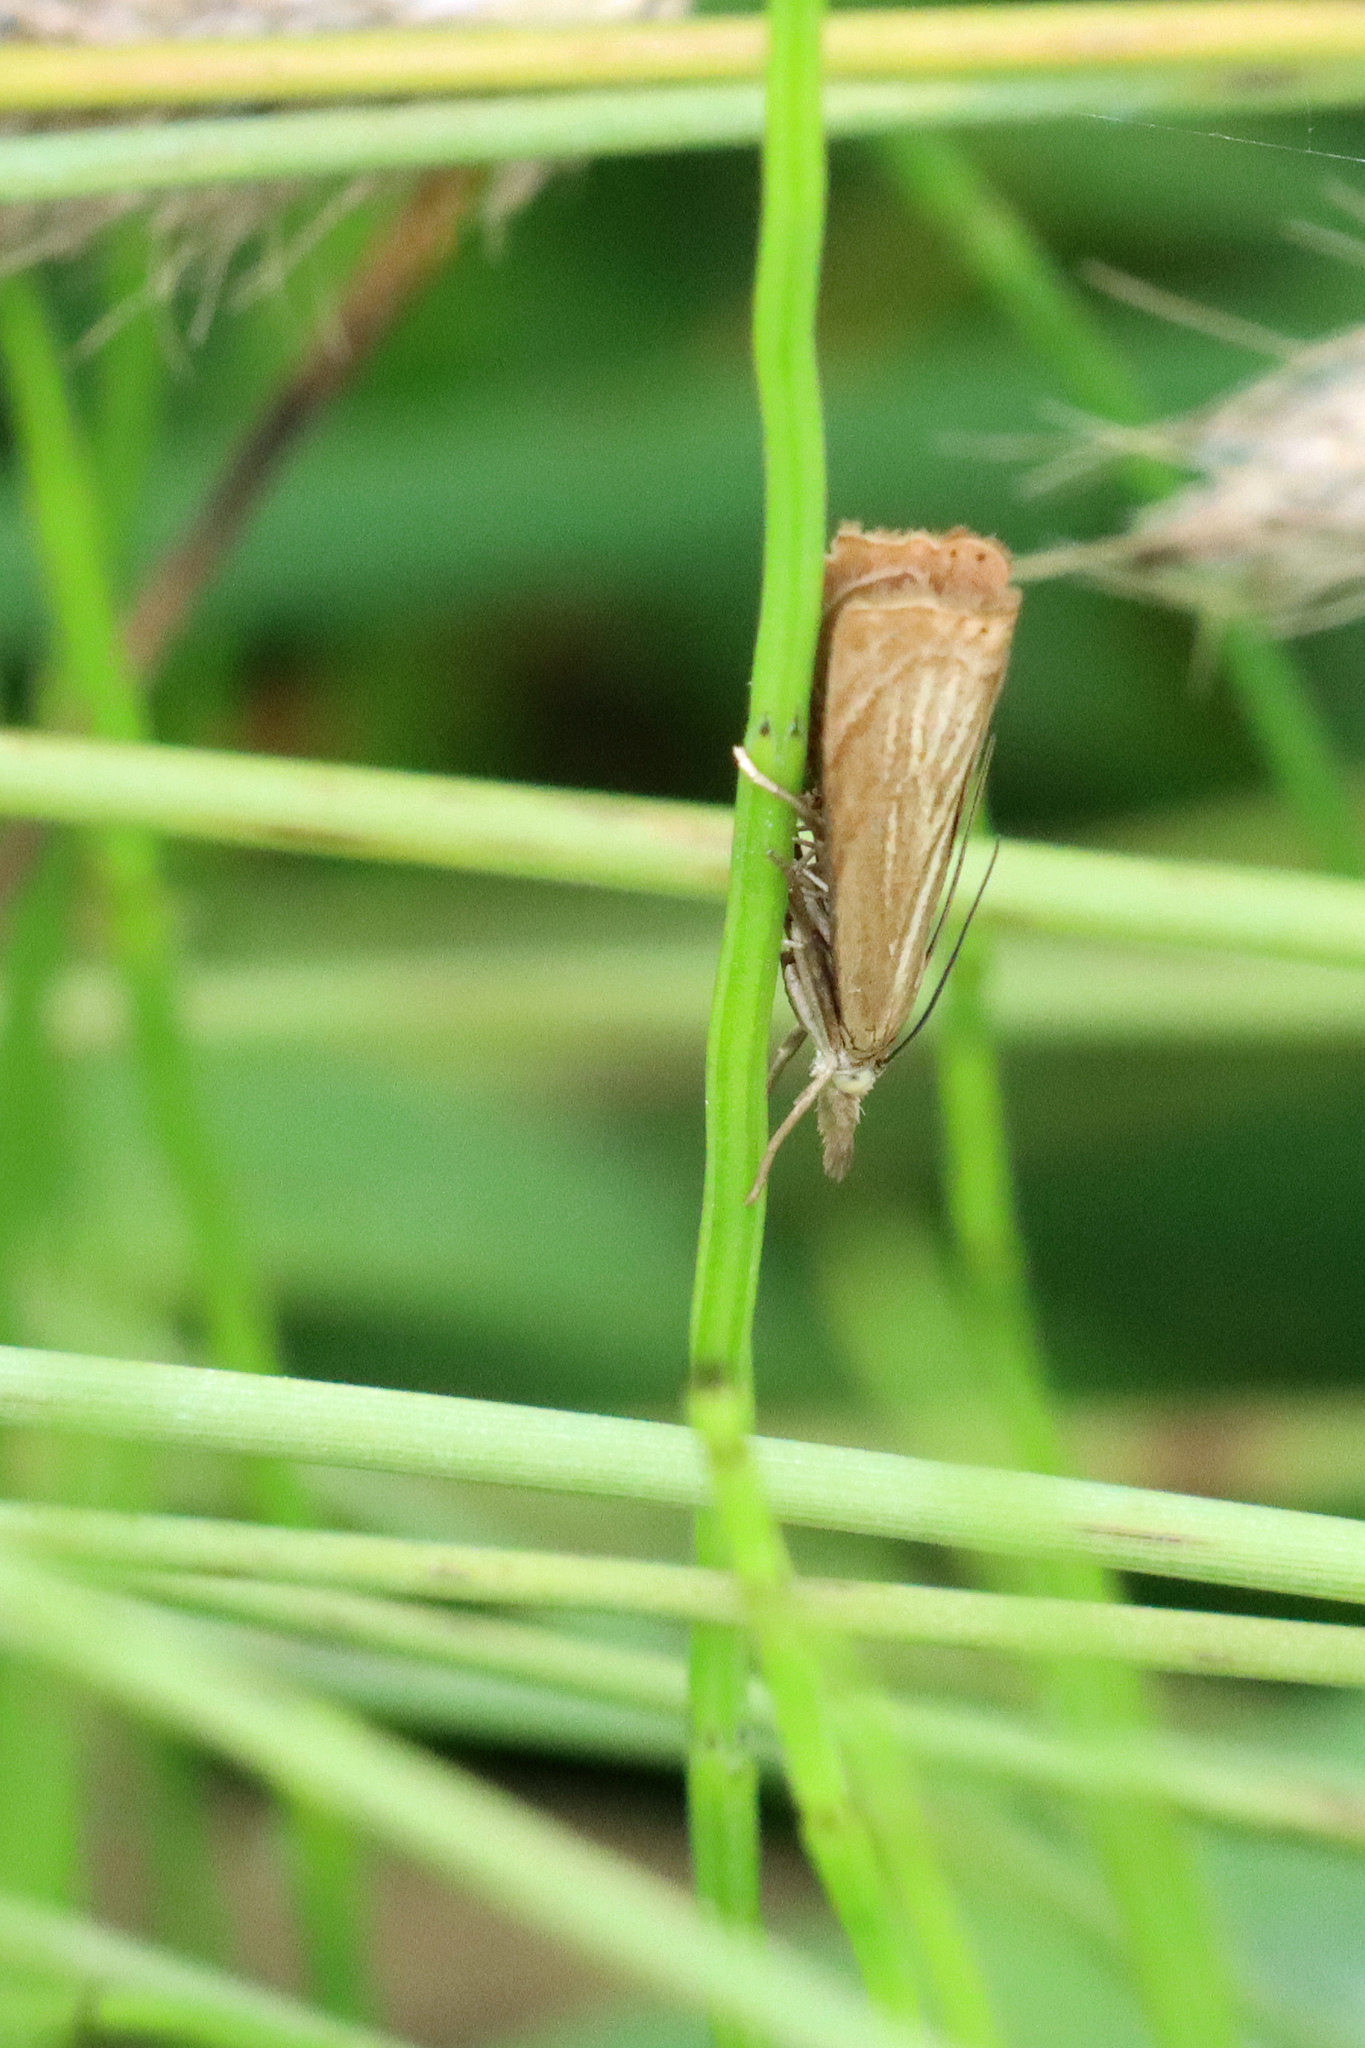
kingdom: Animalia
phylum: Arthropoda
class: Insecta
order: Lepidoptera
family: Crambidae
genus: Chrysoteuchia
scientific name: Chrysoteuchia culmella
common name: Garden grass-veneer
